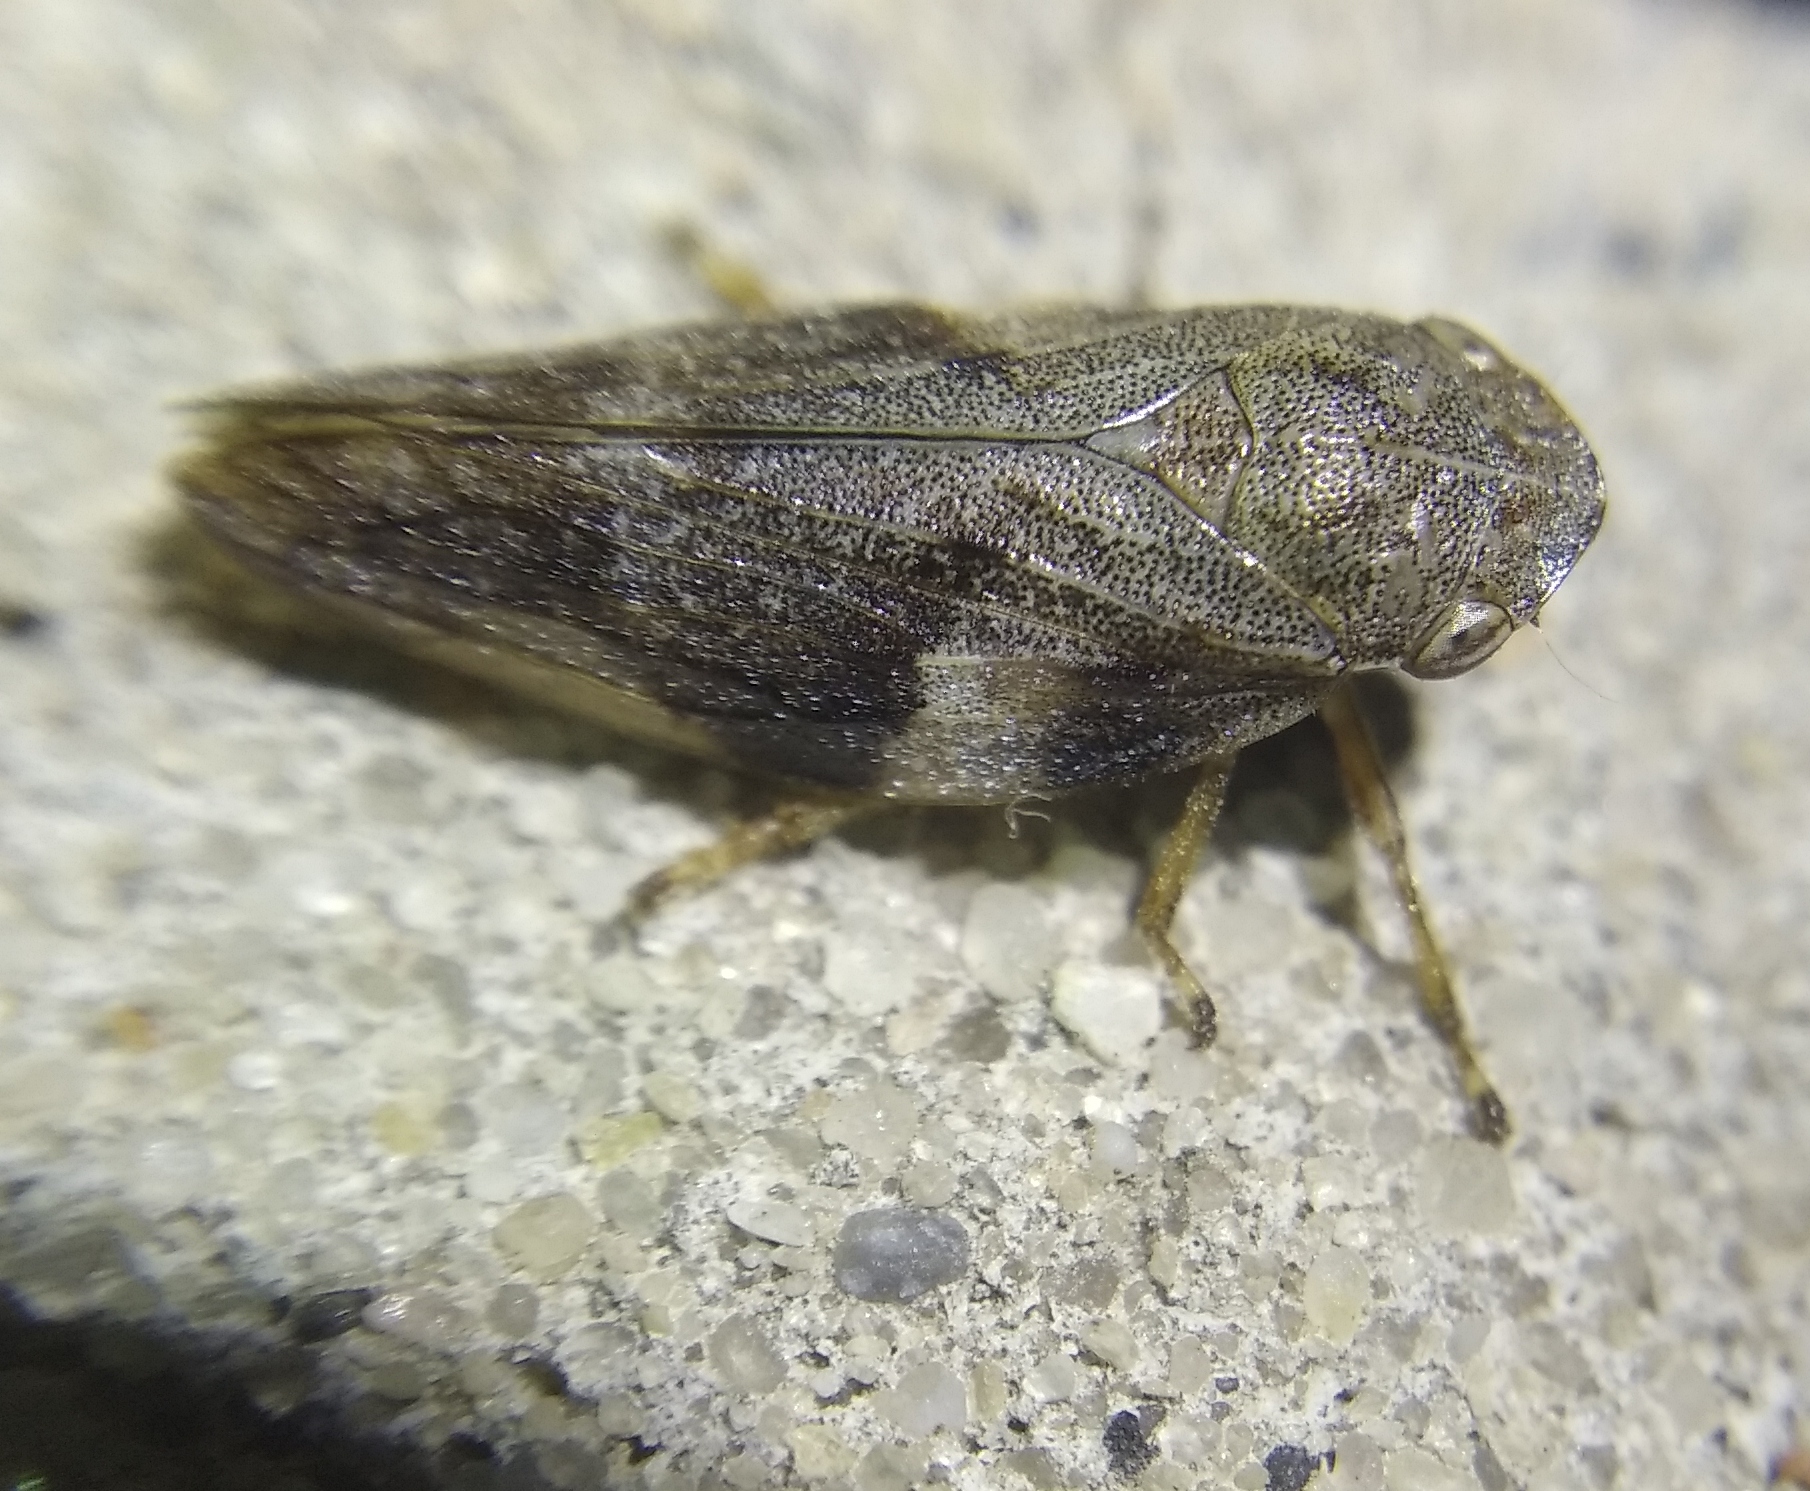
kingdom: Animalia
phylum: Arthropoda
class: Insecta
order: Hemiptera
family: Aphrophoridae
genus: Aphrophora
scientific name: Aphrophora alni
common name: European alder spittlebug
